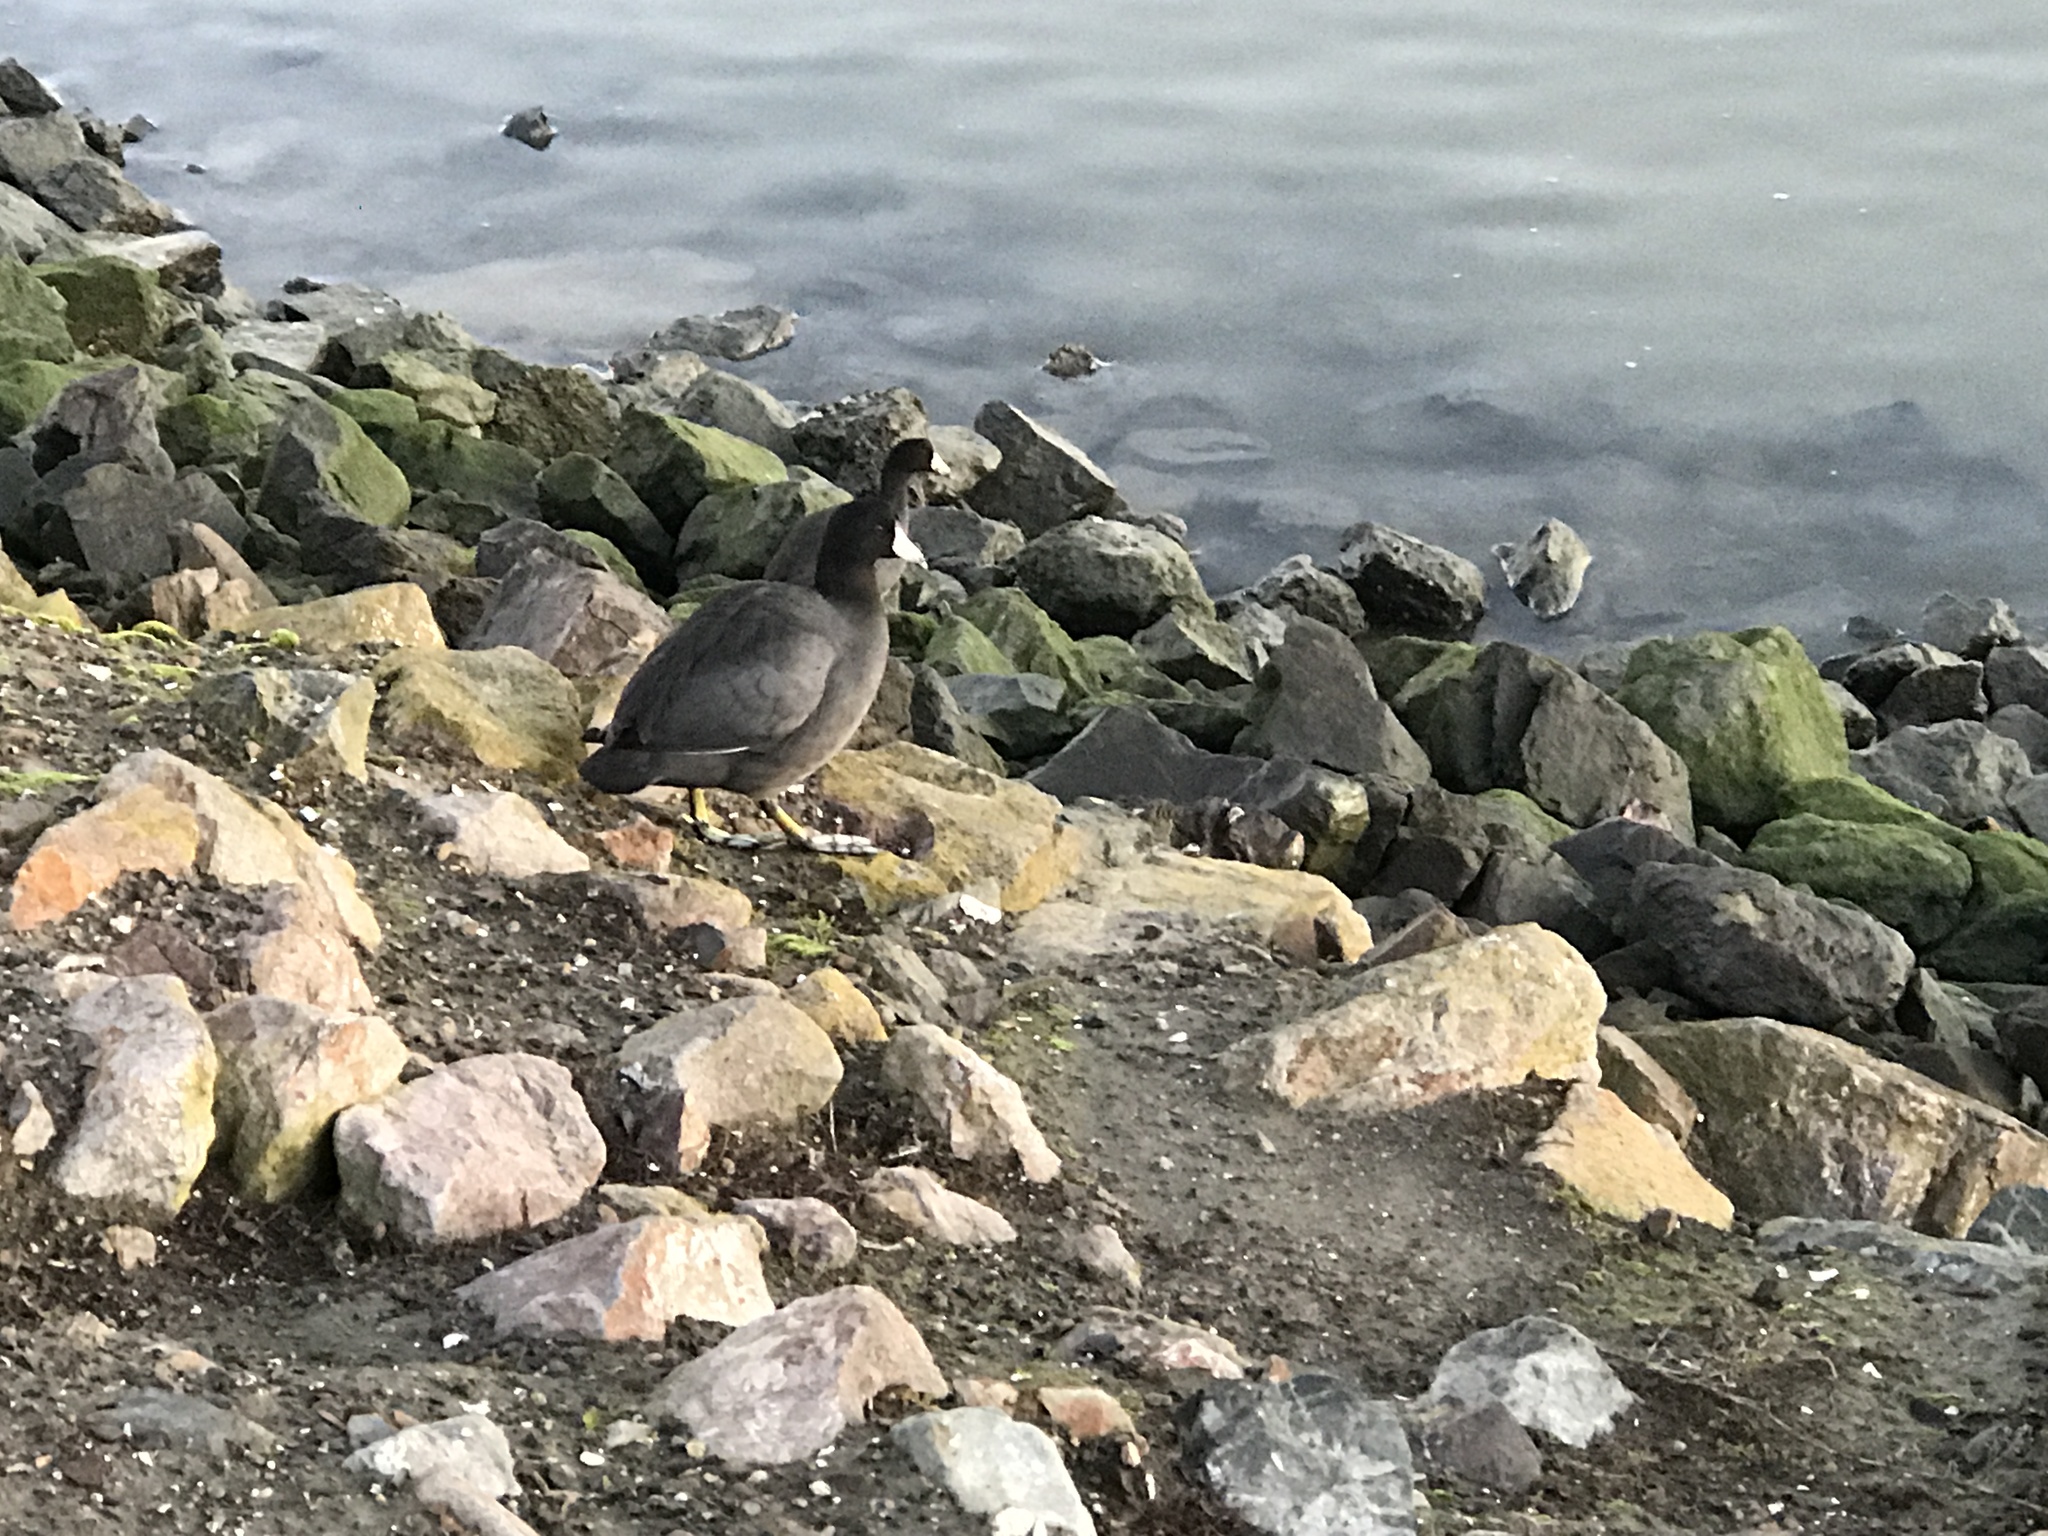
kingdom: Animalia
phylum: Chordata
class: Aves
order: Gruiformes
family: Rallidae
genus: Fulica
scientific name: Fulica americana
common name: American coot
